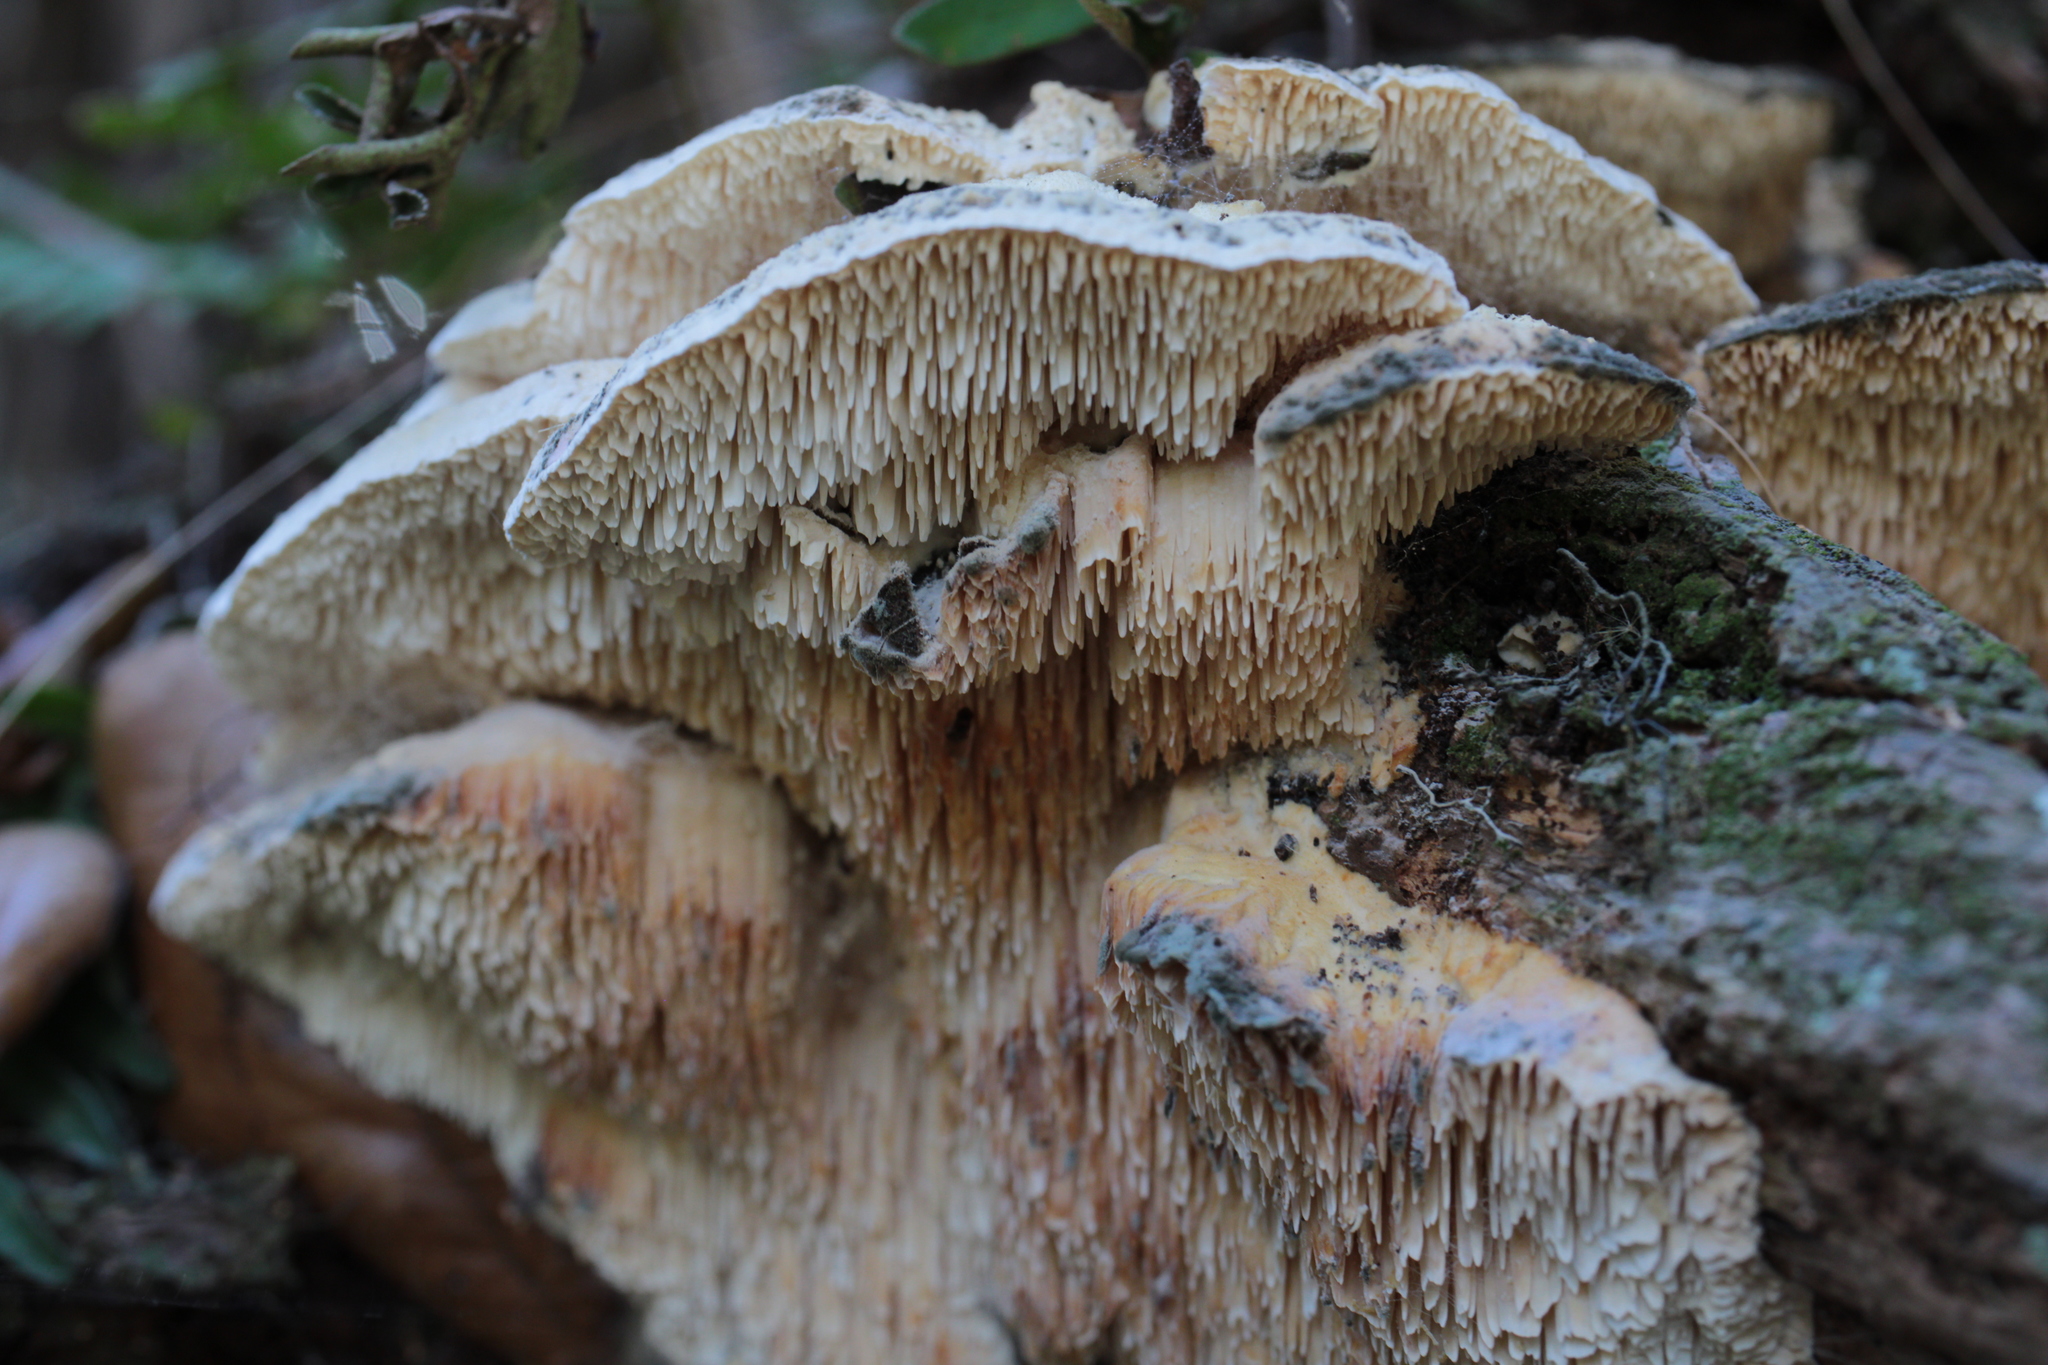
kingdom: Fungi
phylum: Basidiomycota
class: Agaricomycetes
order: Polyporales
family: Meruliaceae
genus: Irpiciporus
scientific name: Irpiciporus pachyodon
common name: Marshmallow polypore
